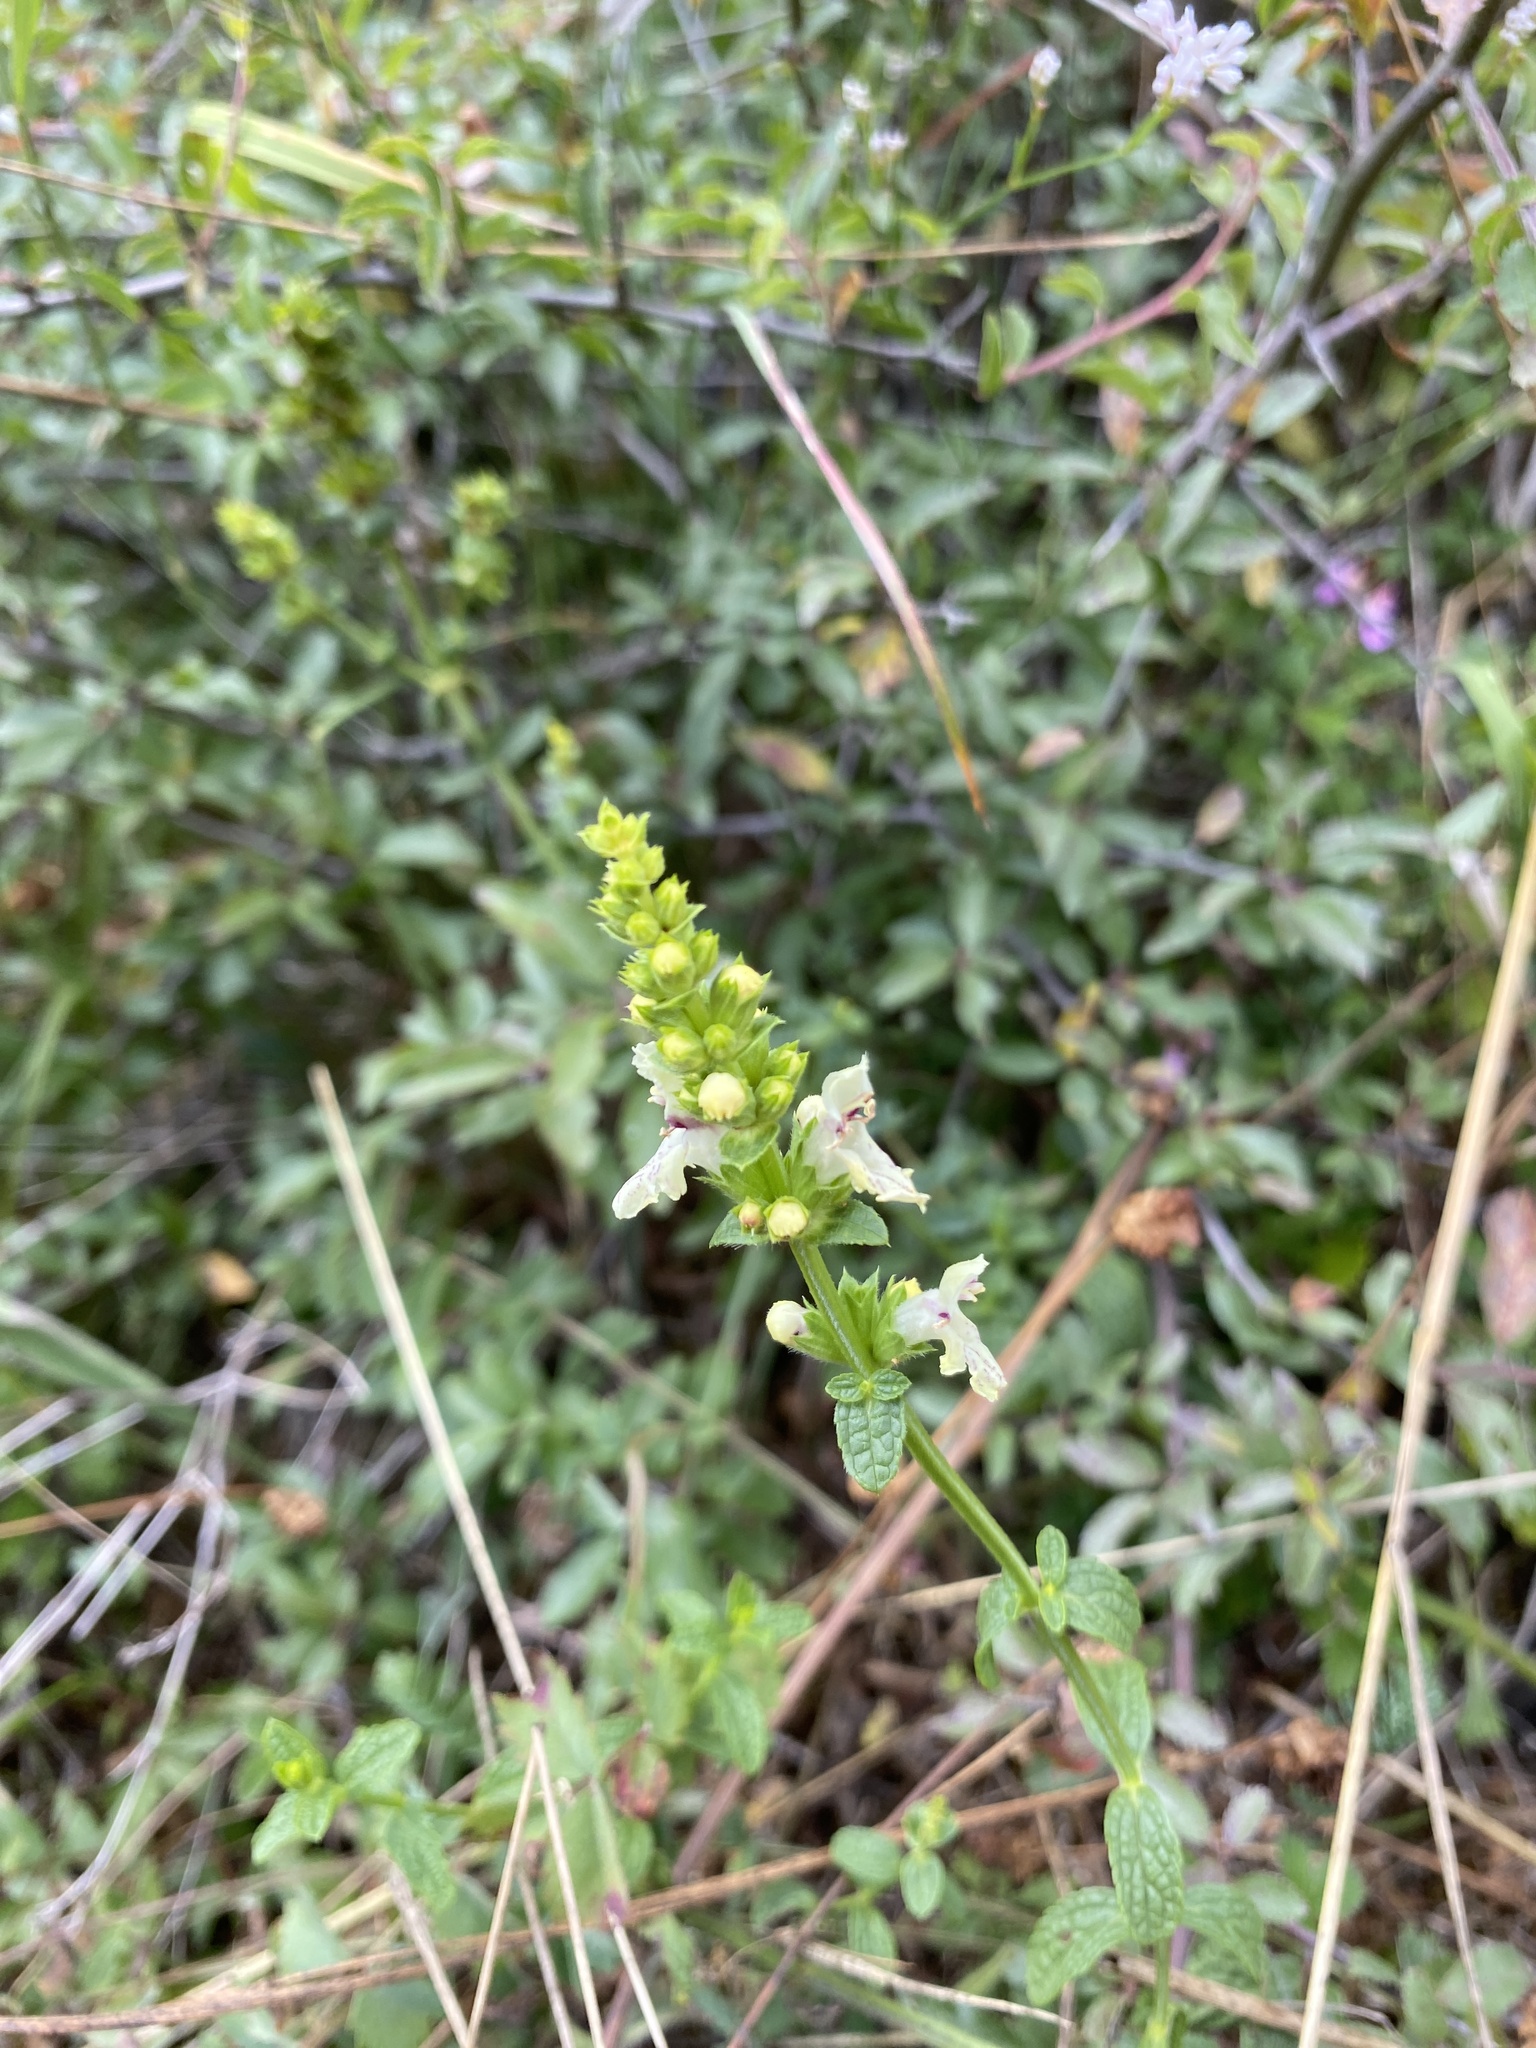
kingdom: Plantae
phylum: Tracheophyta
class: Magnoliopsida
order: Lamiales
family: Lamiaceae
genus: Stachys
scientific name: Stachys recta
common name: Perennial yellow-woundwort
